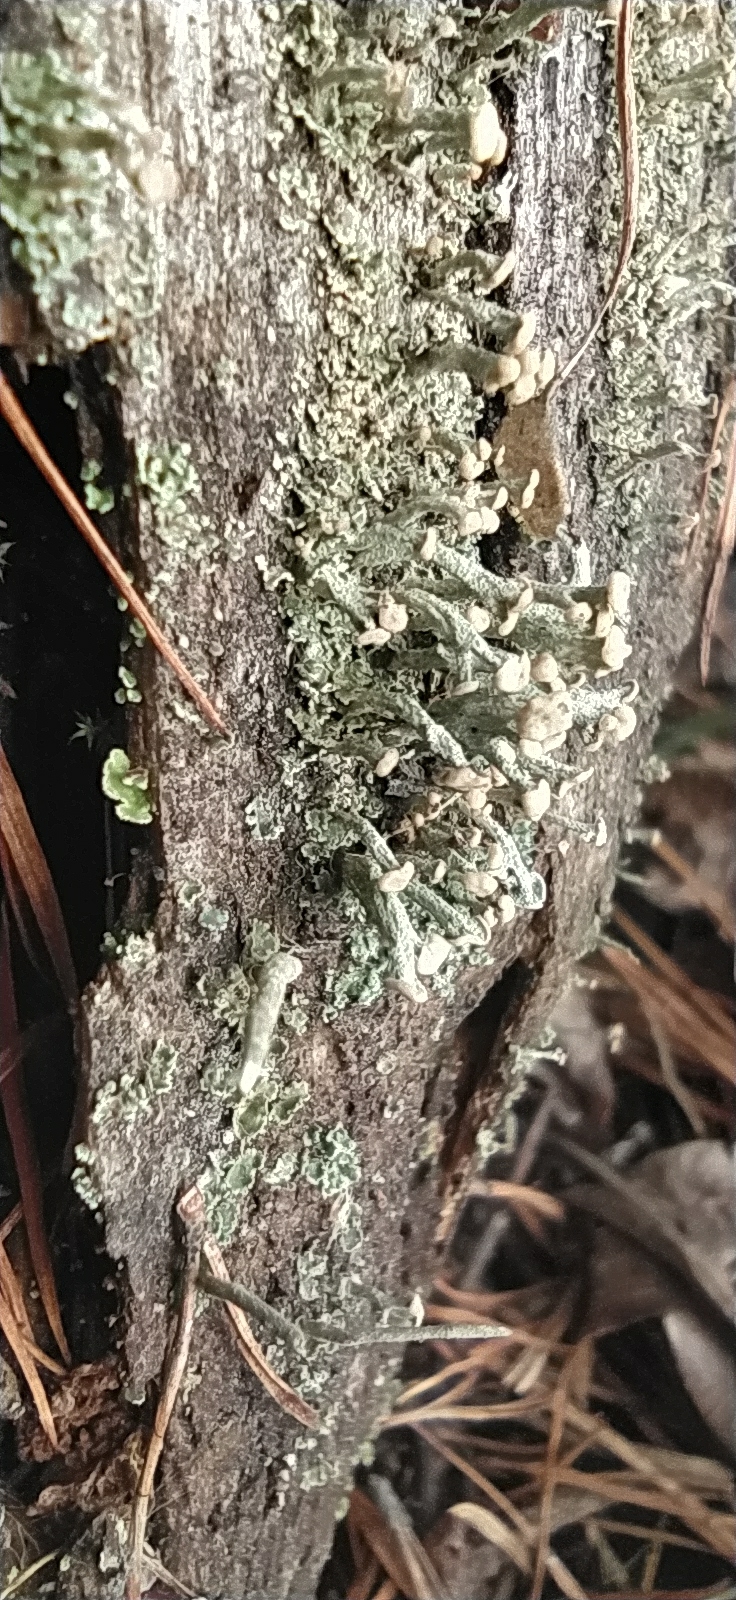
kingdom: Fungi
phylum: Ascomycota
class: Lecanoromycetes
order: Lecanorales
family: Cladoniaceae
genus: Cladonia
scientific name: Cladonia botrytes
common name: Stump lichen
